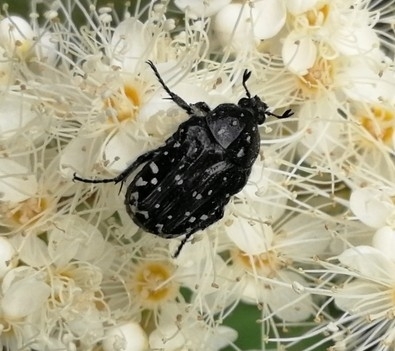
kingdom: Animalia
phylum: Arthropoda
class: Insecta
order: Coleoptera
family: Scarabaeidae
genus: Oxythyrea
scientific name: Oxythyrea funesta
